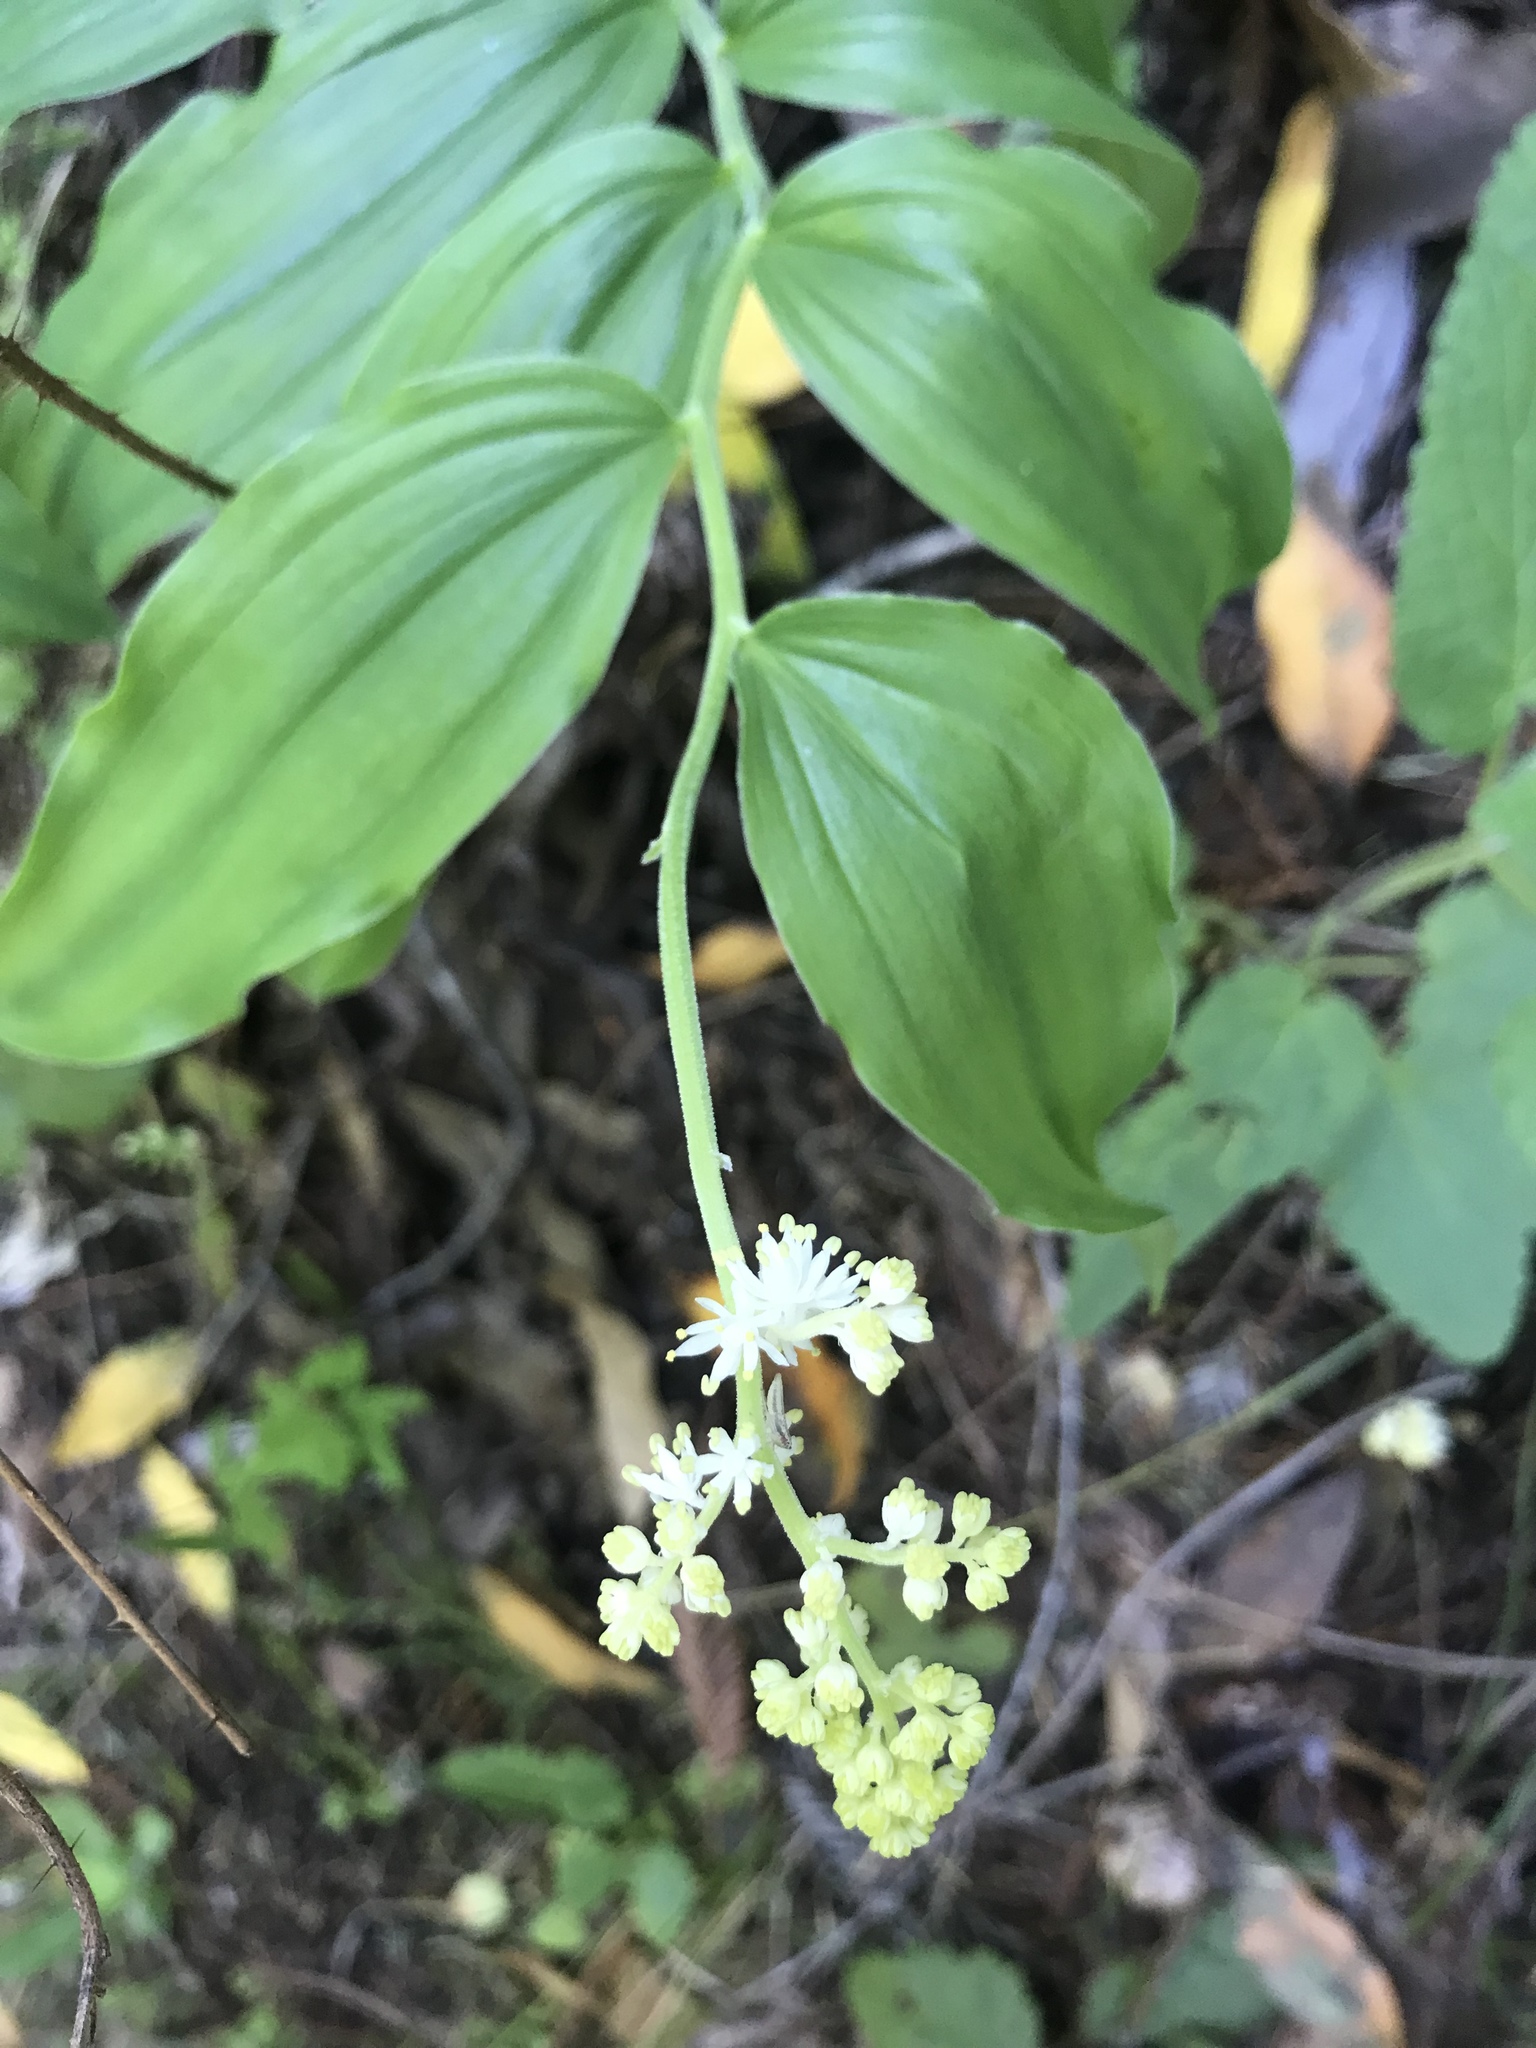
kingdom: Plantae
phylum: Tracheophyta
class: Liliopsida
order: Asparagales
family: Asparagaceae
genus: Maianthemum
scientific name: Maianthemum racemosum
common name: False spikenard
